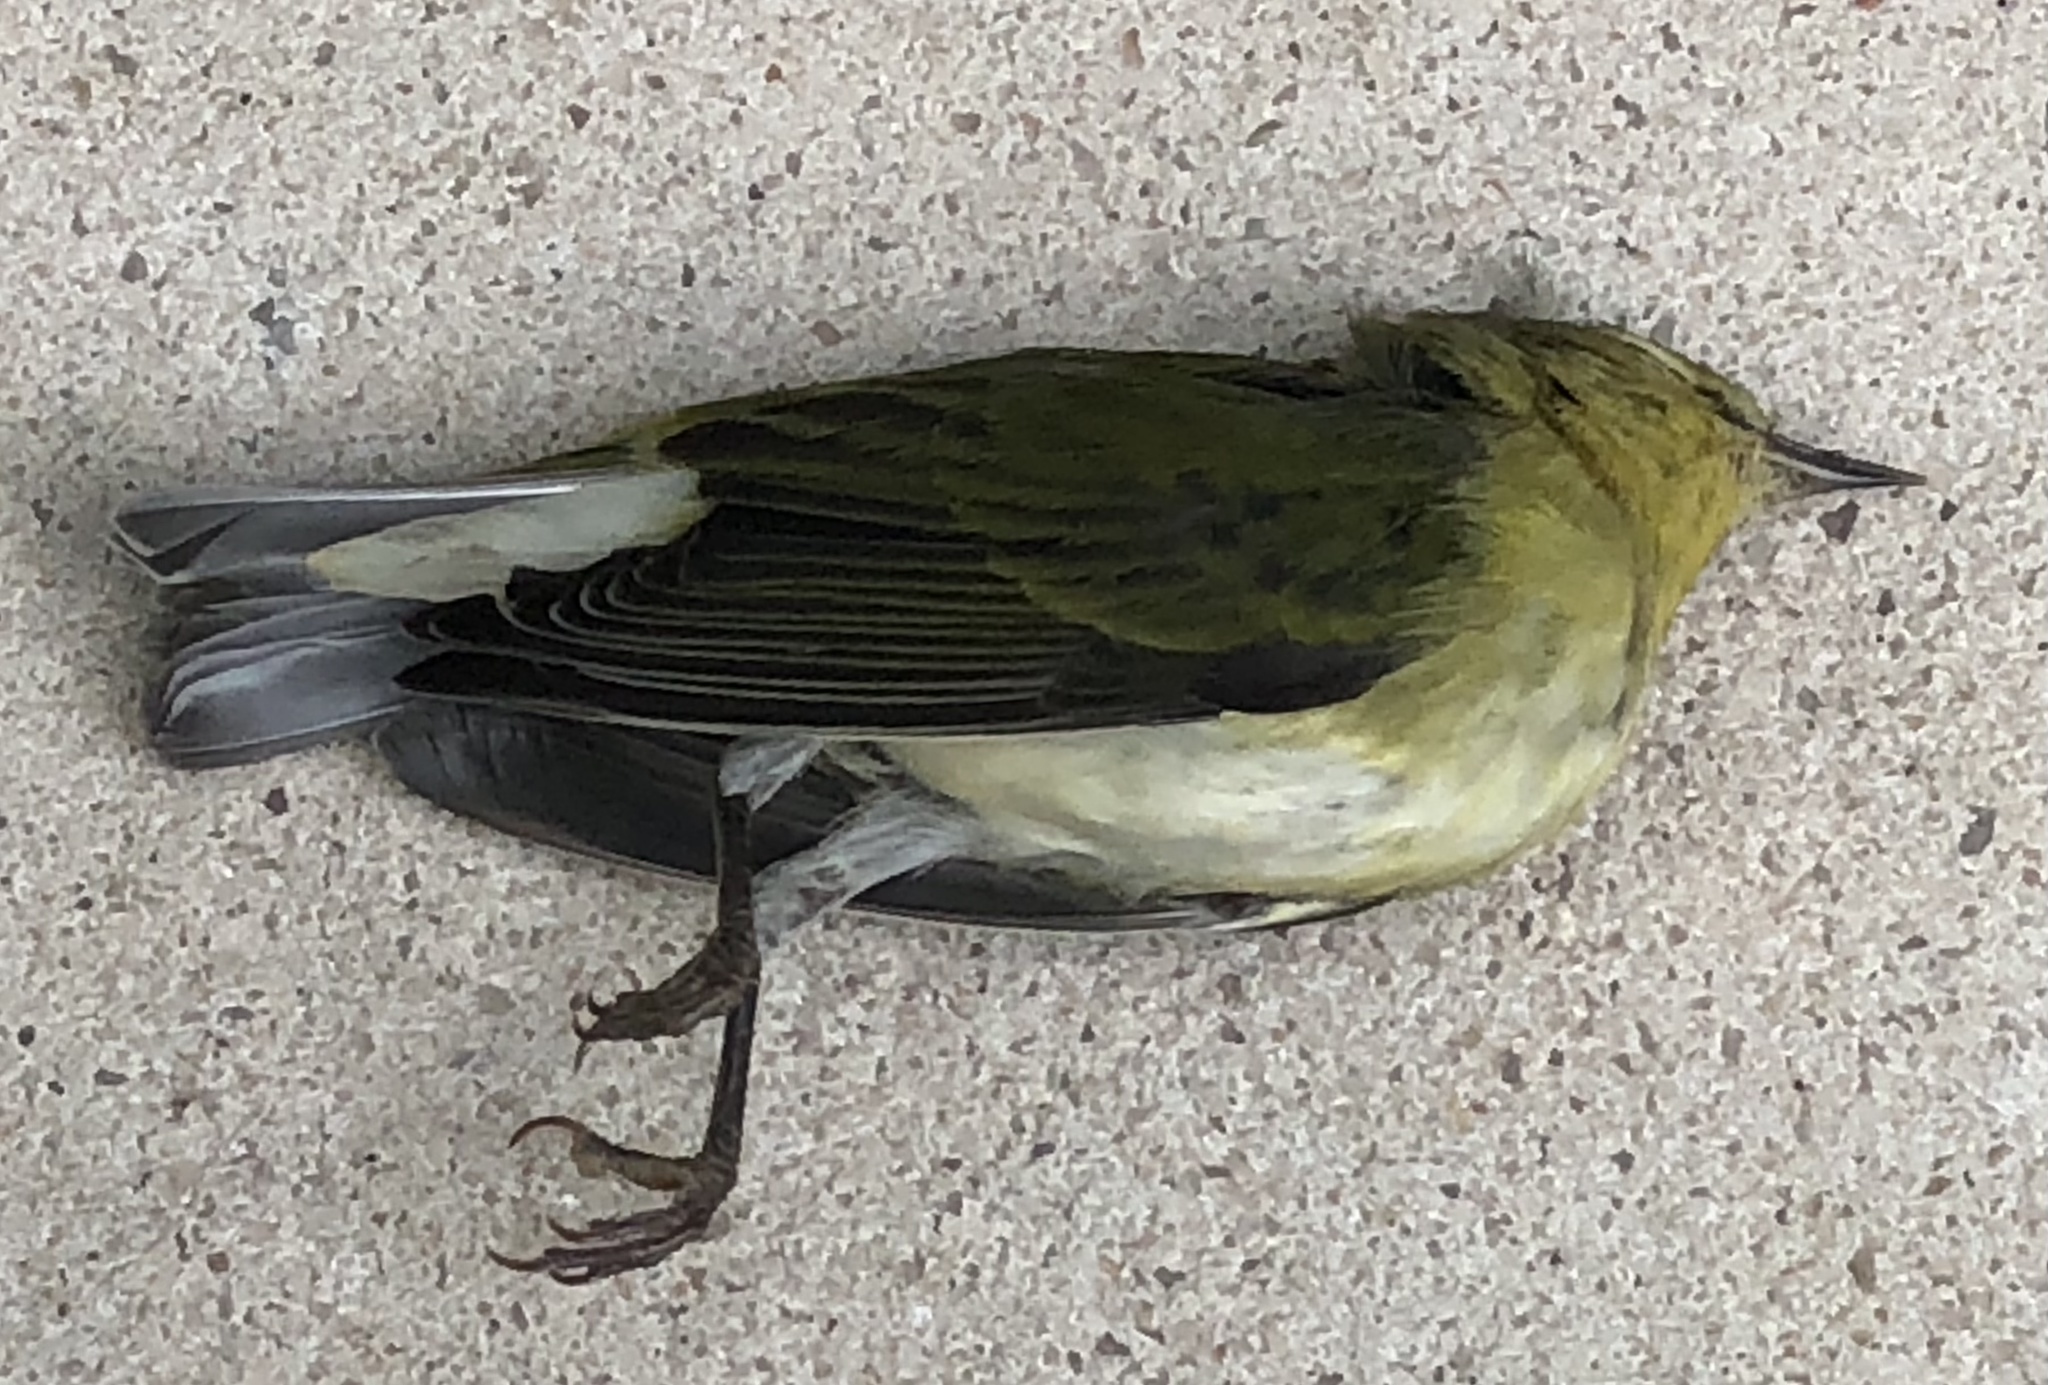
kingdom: Animalia
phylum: Chordata
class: Aves
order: Passeriformes
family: Parulidae
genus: Leiothlypis
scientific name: Leiothlypis peregrina
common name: Tennessee warbler
